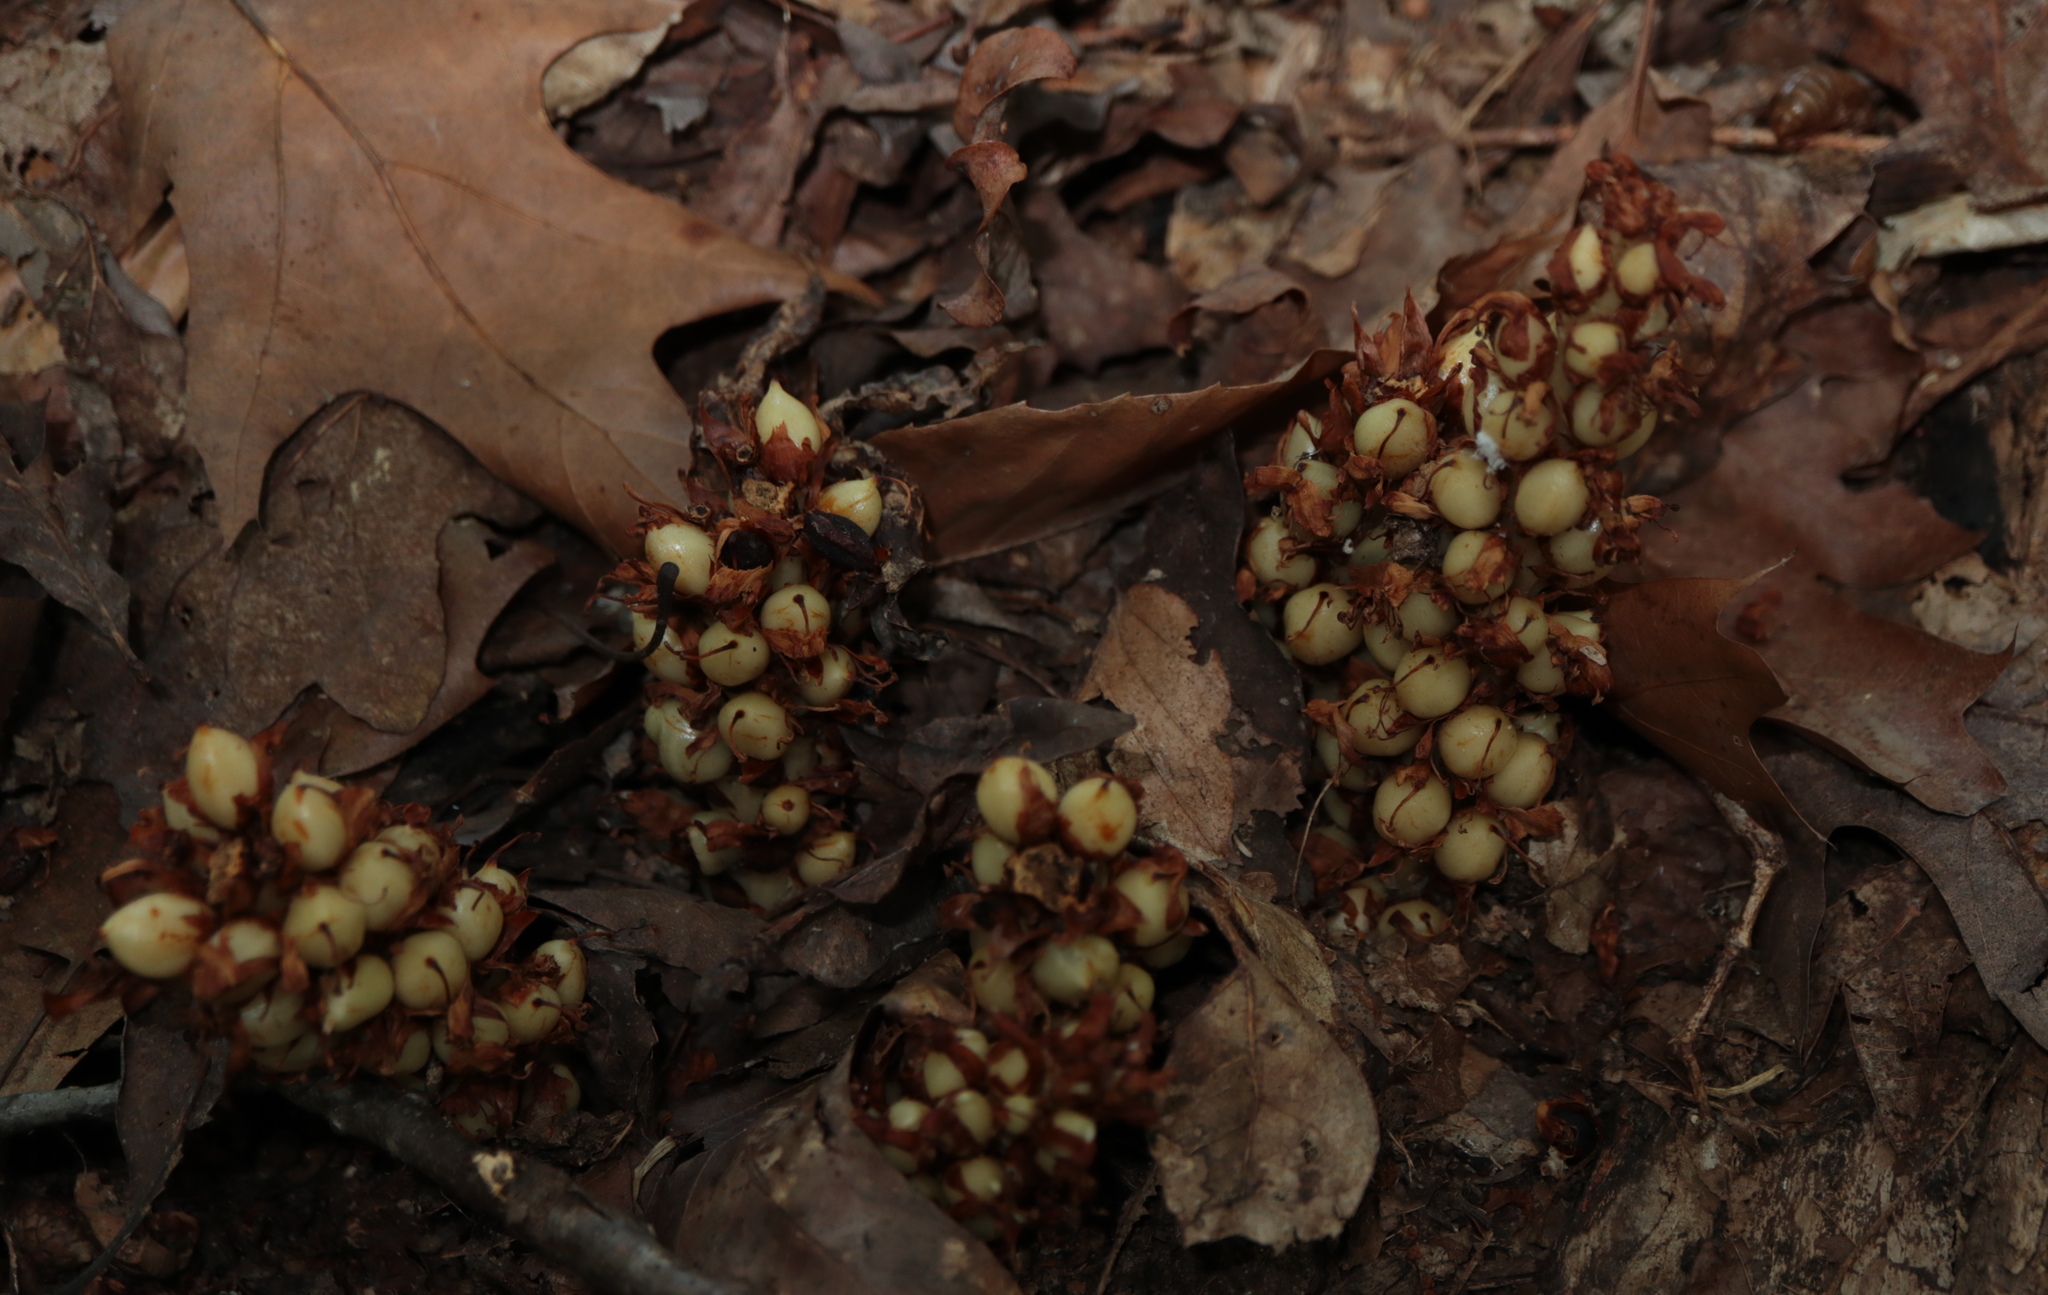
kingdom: Plantae
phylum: Tracheophyta
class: Magnoliopsida
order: Lamiales
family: Orobanchaceae
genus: Conopholis
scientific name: Conopholis americana
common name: American cancer-root
